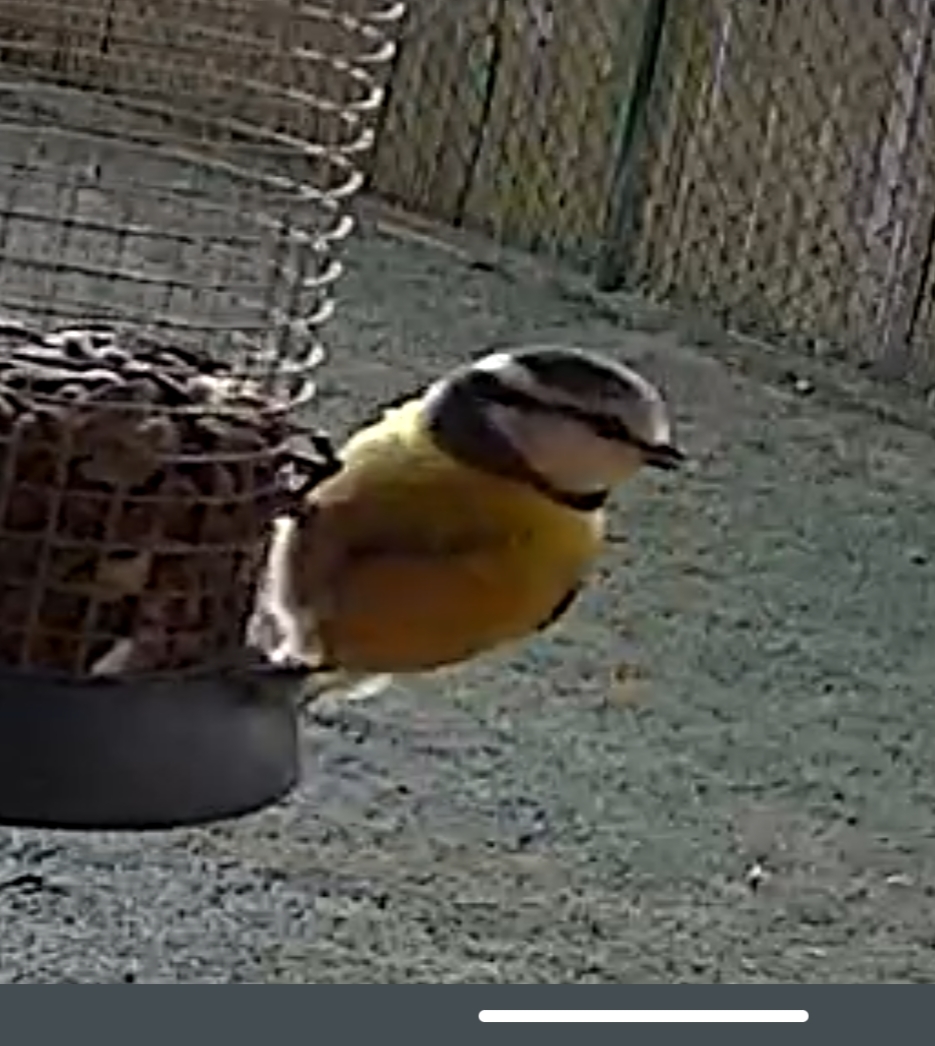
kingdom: Animalia
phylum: Chordata
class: Aves
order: Passeriformes
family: Paridae
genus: Cyanistes
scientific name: Cyanistes caeruleus
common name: Eurasian blue tit
